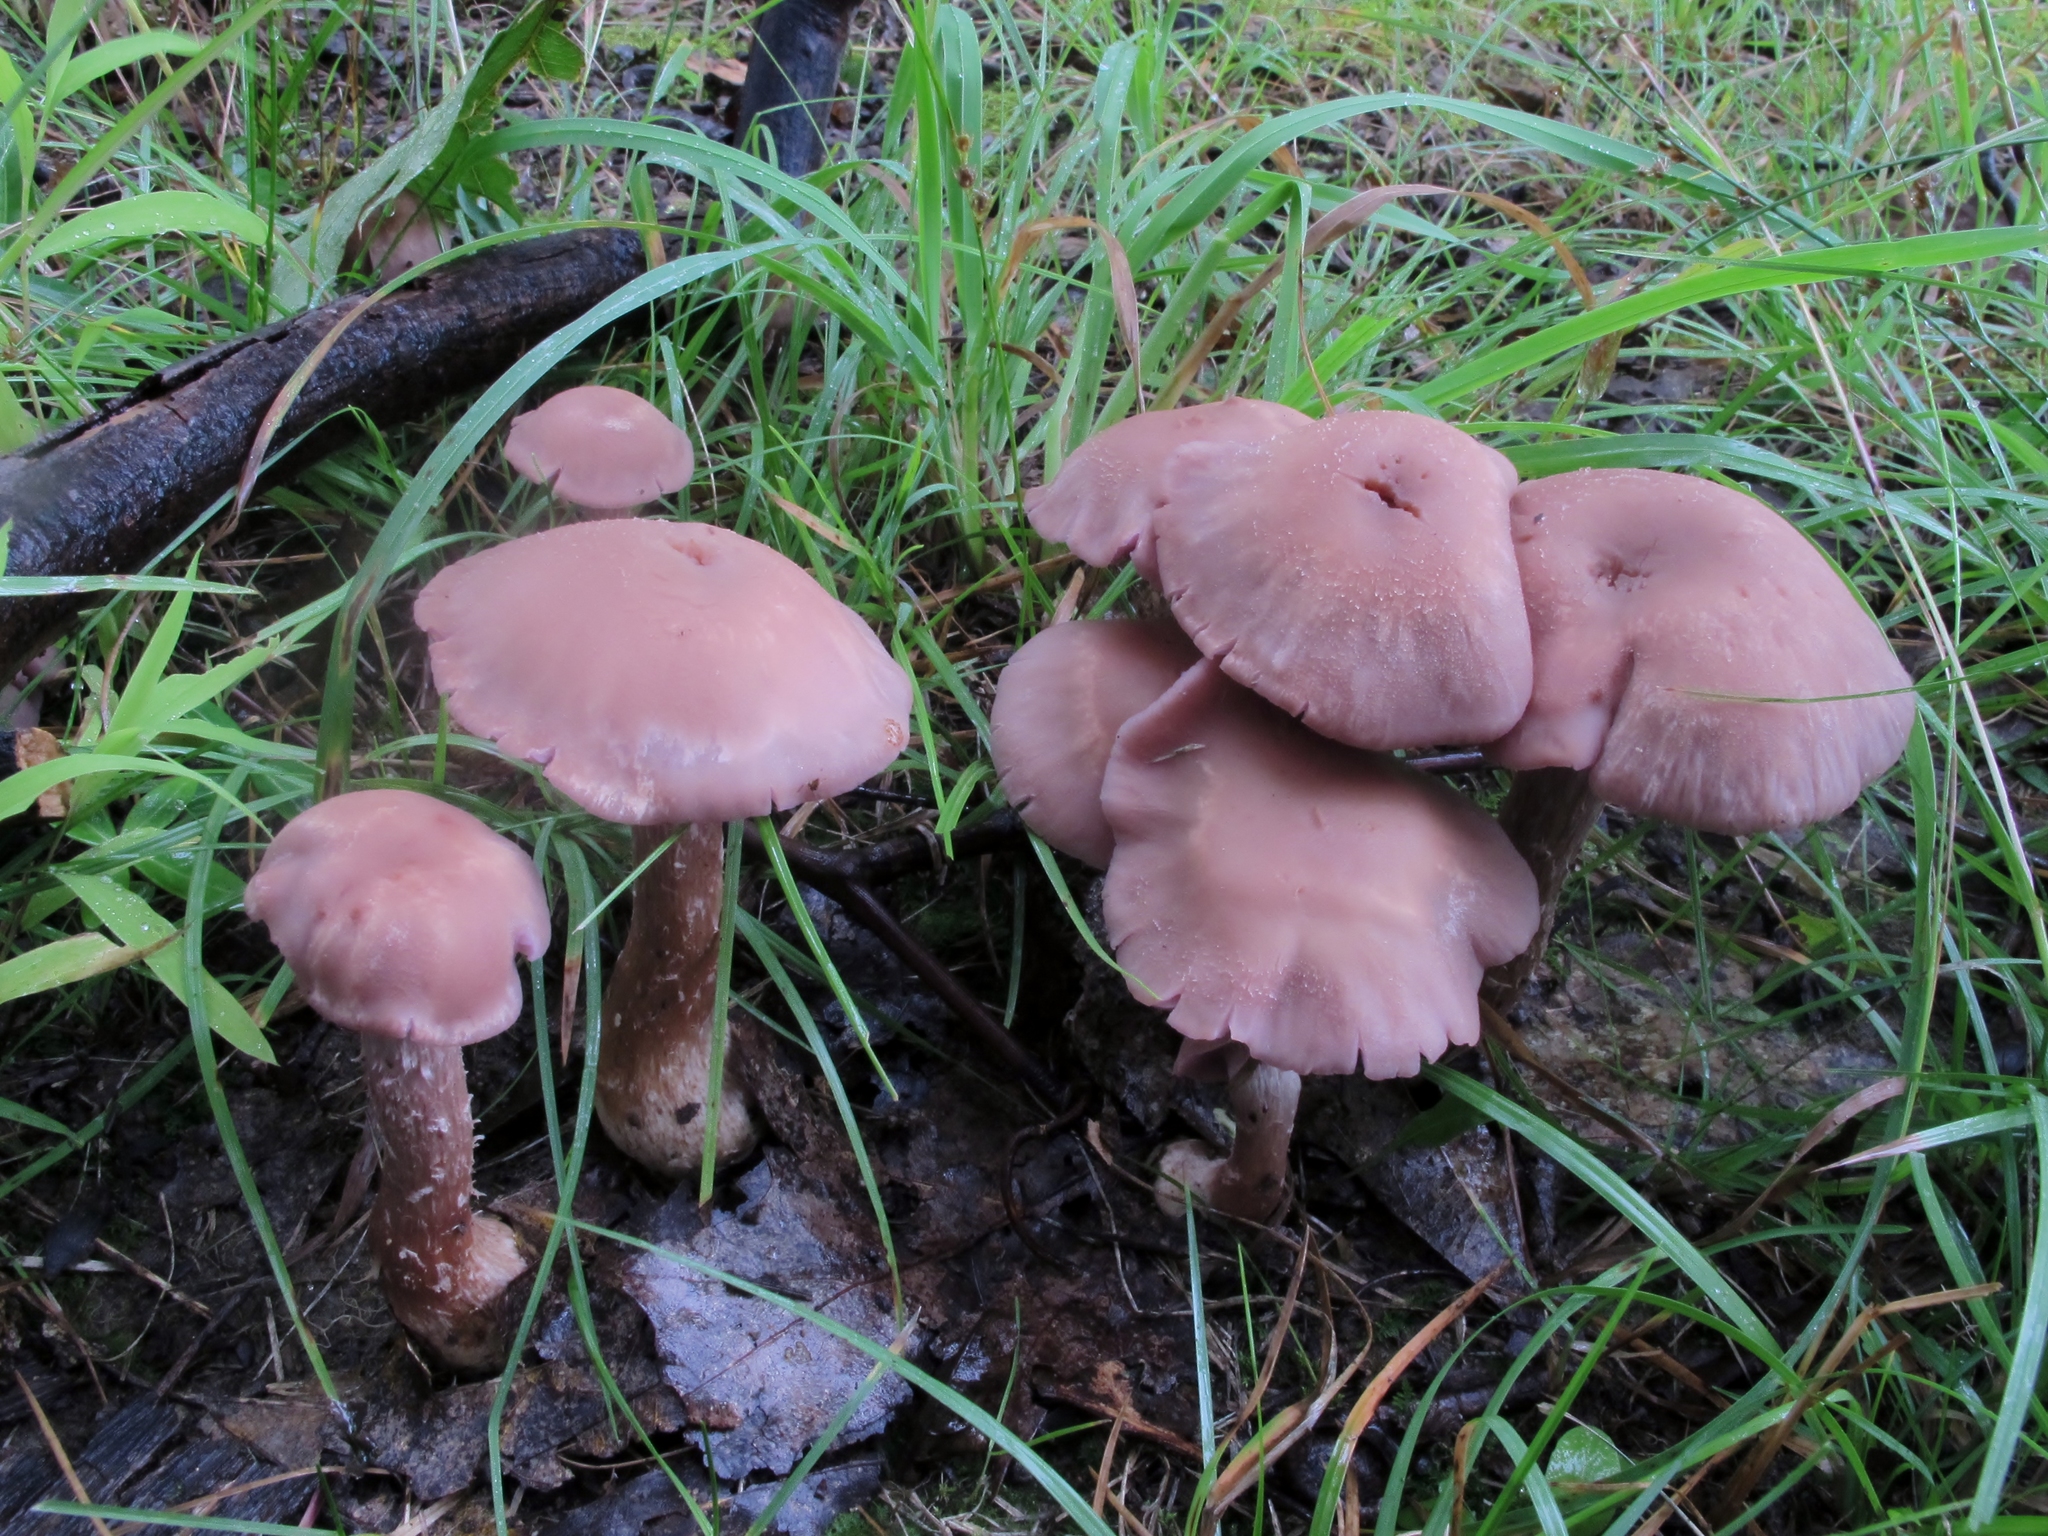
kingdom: Fungi
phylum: Basidiomycota
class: Agaricomycetes
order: Agaricales
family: Hydnangiaceae
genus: Laccaria
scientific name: Laccaria ochropurpurea
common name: Purple laccaria
